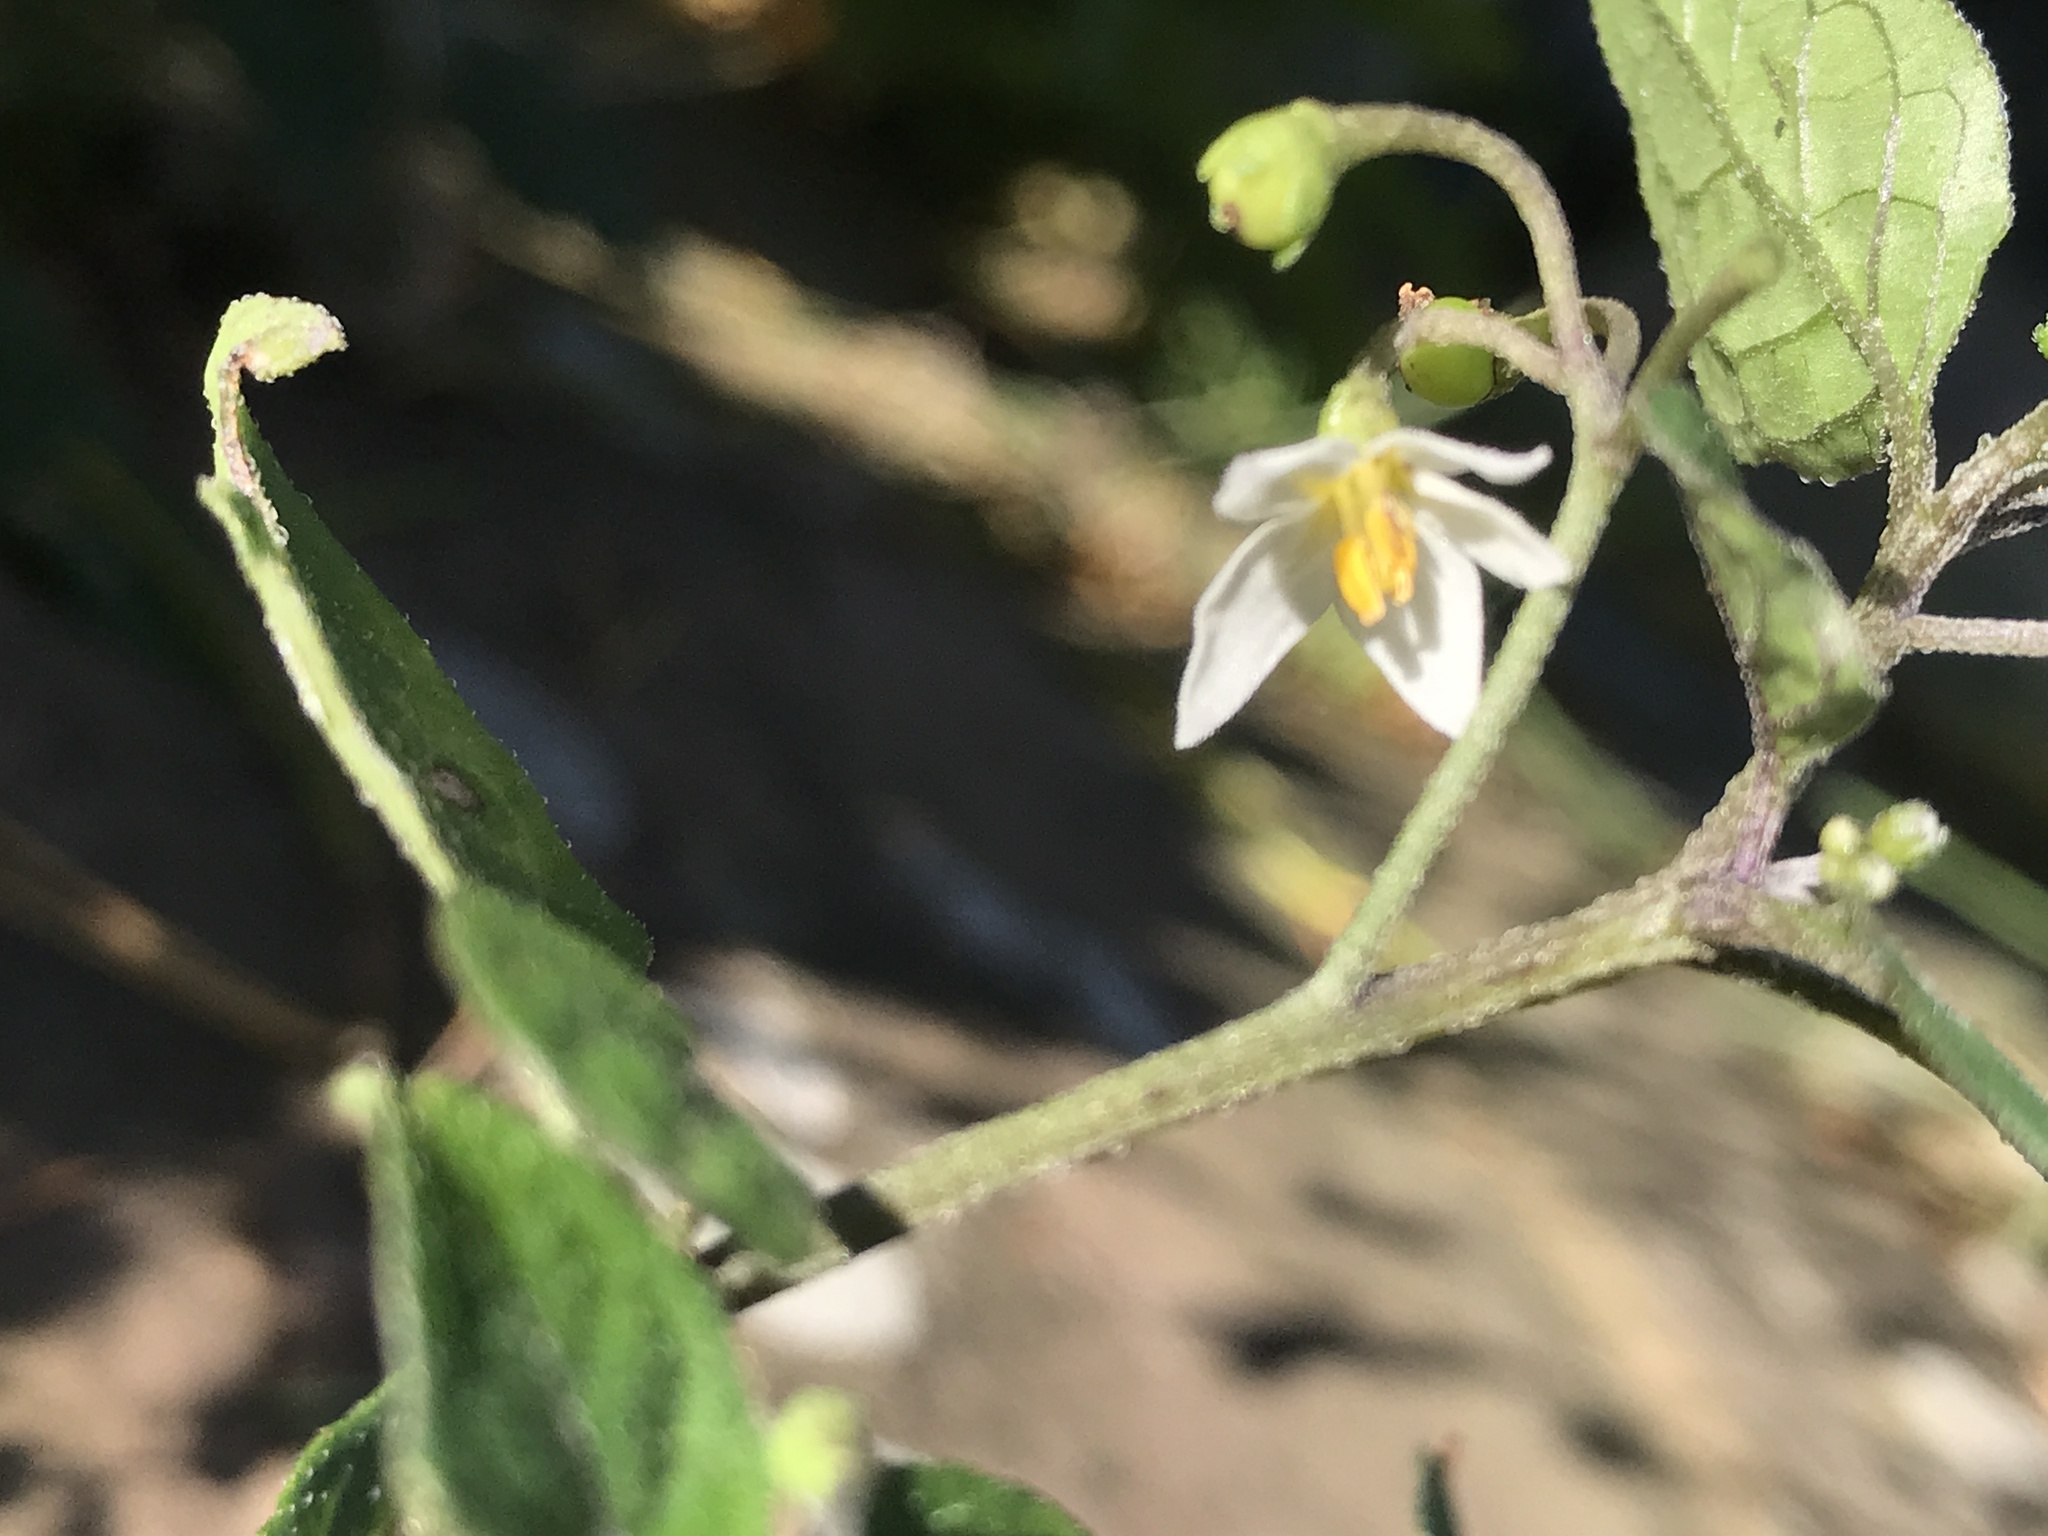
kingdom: Plantae
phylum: Tracheophyta
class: Magnoliopsida
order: Solanales
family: Solanaceae
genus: Solanum
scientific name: Solanum nigrum
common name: Black nightshade
